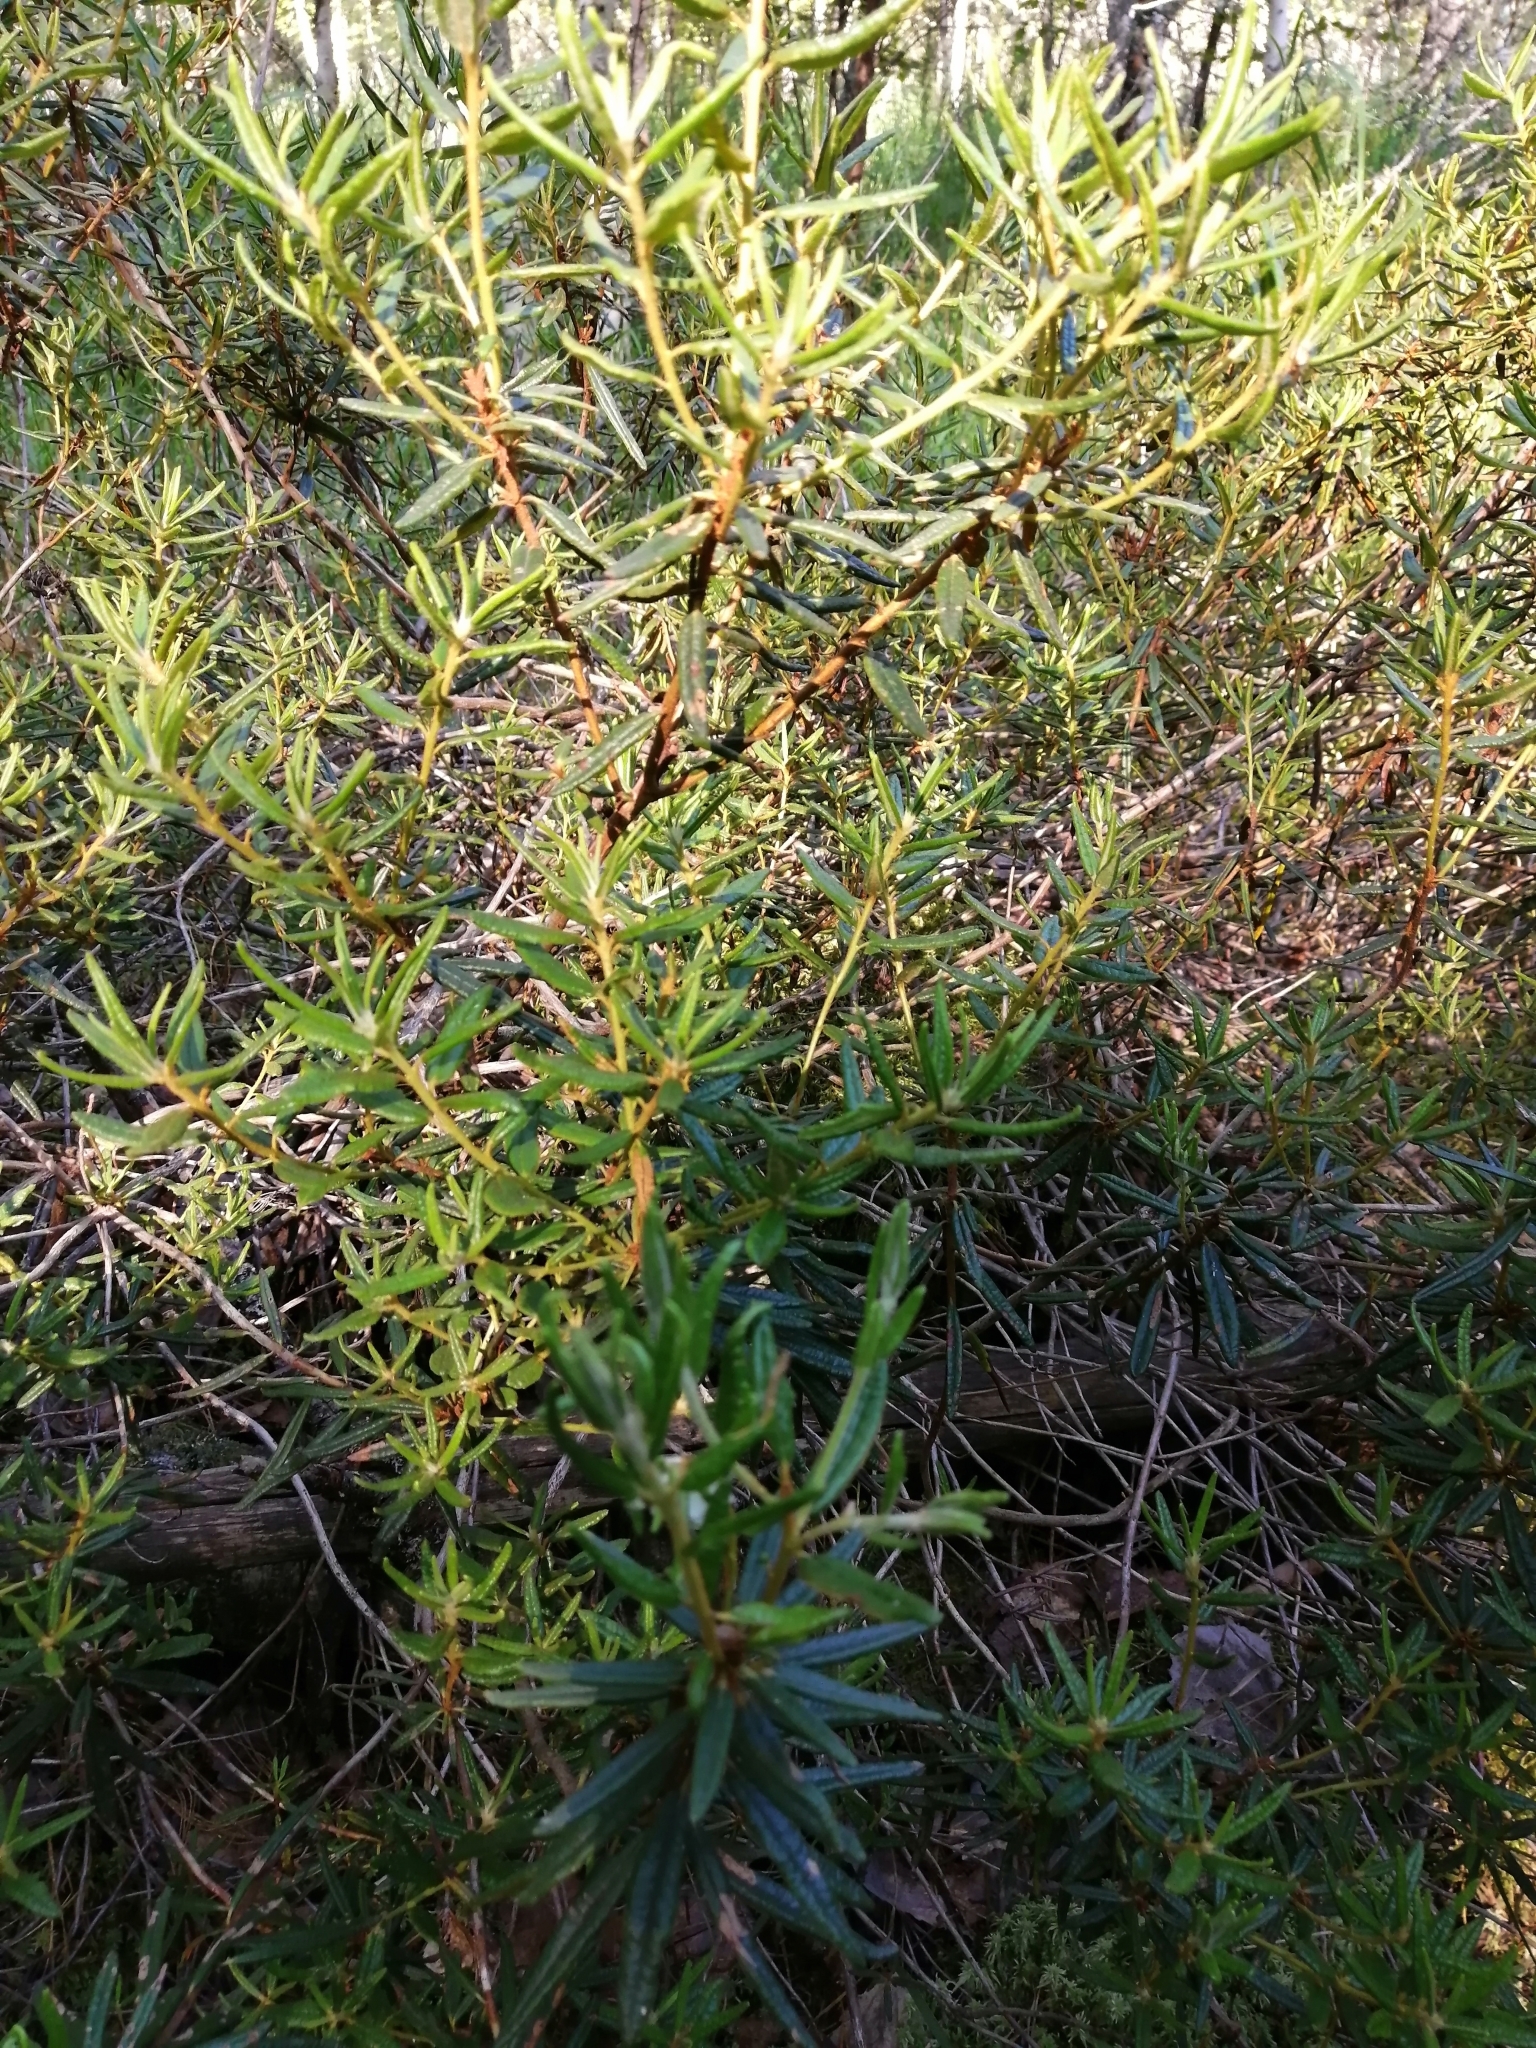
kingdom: Plantae
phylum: Tracheophyta
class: Magnoliopsida
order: Ericales
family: Ericaceae
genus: Rhododendron
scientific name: Rhododendron tomentosum
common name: Marsh labrador tea
